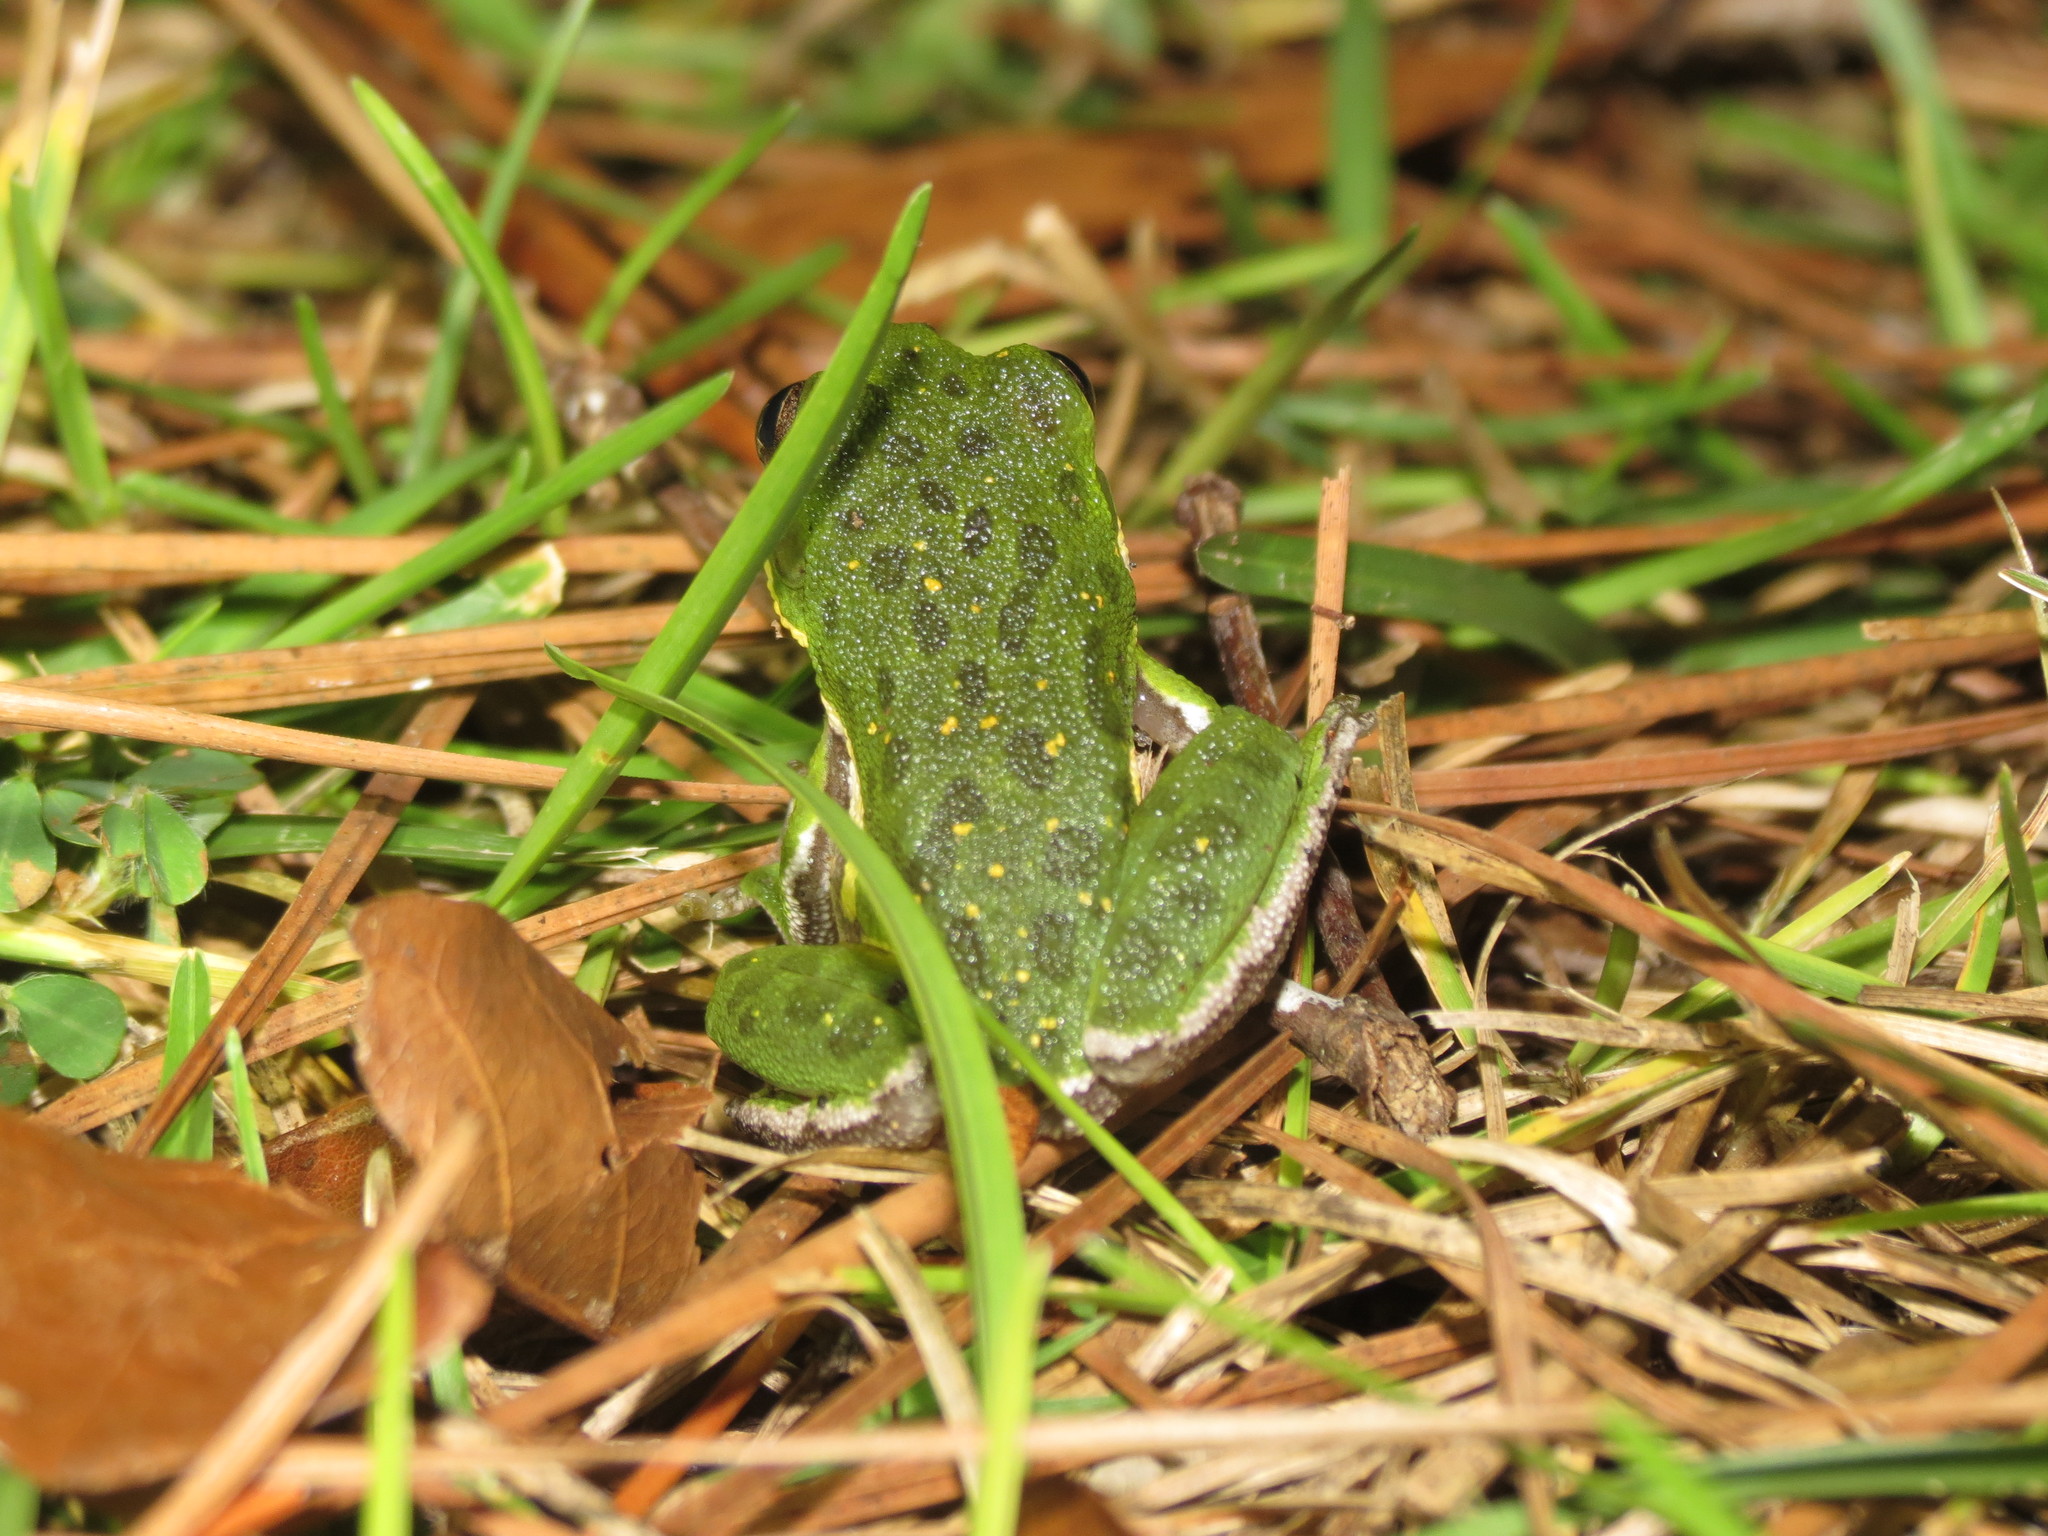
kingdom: Animalia
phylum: Chordata
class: Amphibia
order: Anura
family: Hylidae
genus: Dryophytes
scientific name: Dryophytes gratiosus
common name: Barking treefrog
